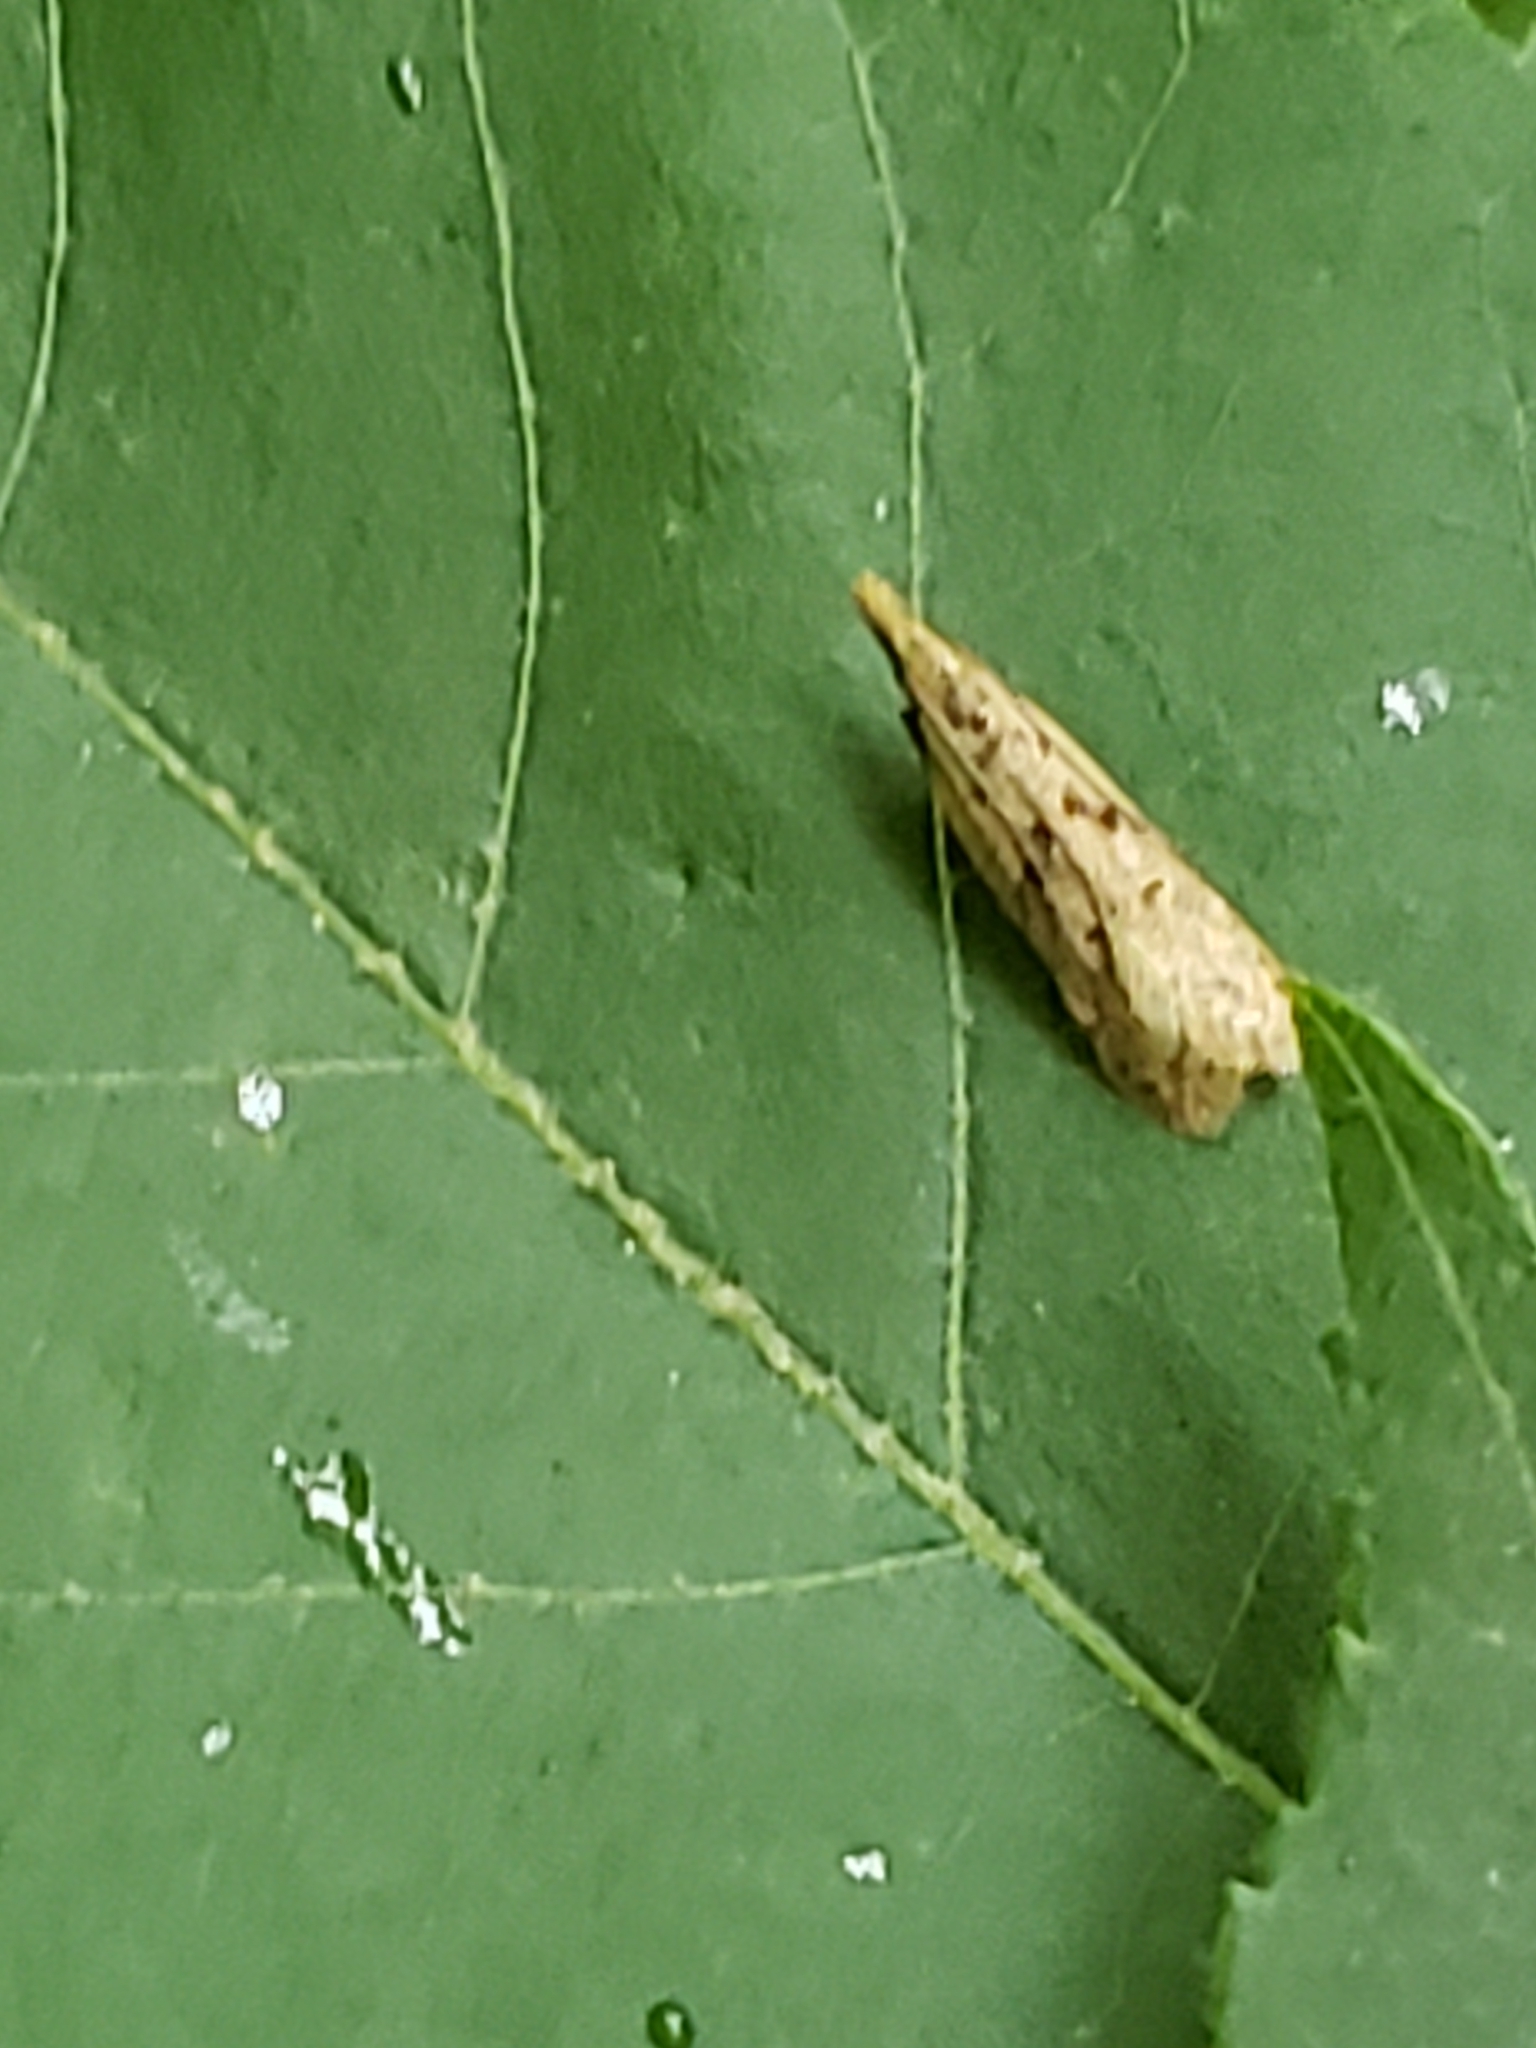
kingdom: Animalia
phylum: Arthropoda
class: Insecta
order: Lepidoptera
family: Gelechiidae
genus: Dichomeris
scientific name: Dichomeris punctipennella
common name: Many-spotted dichomeris moth
